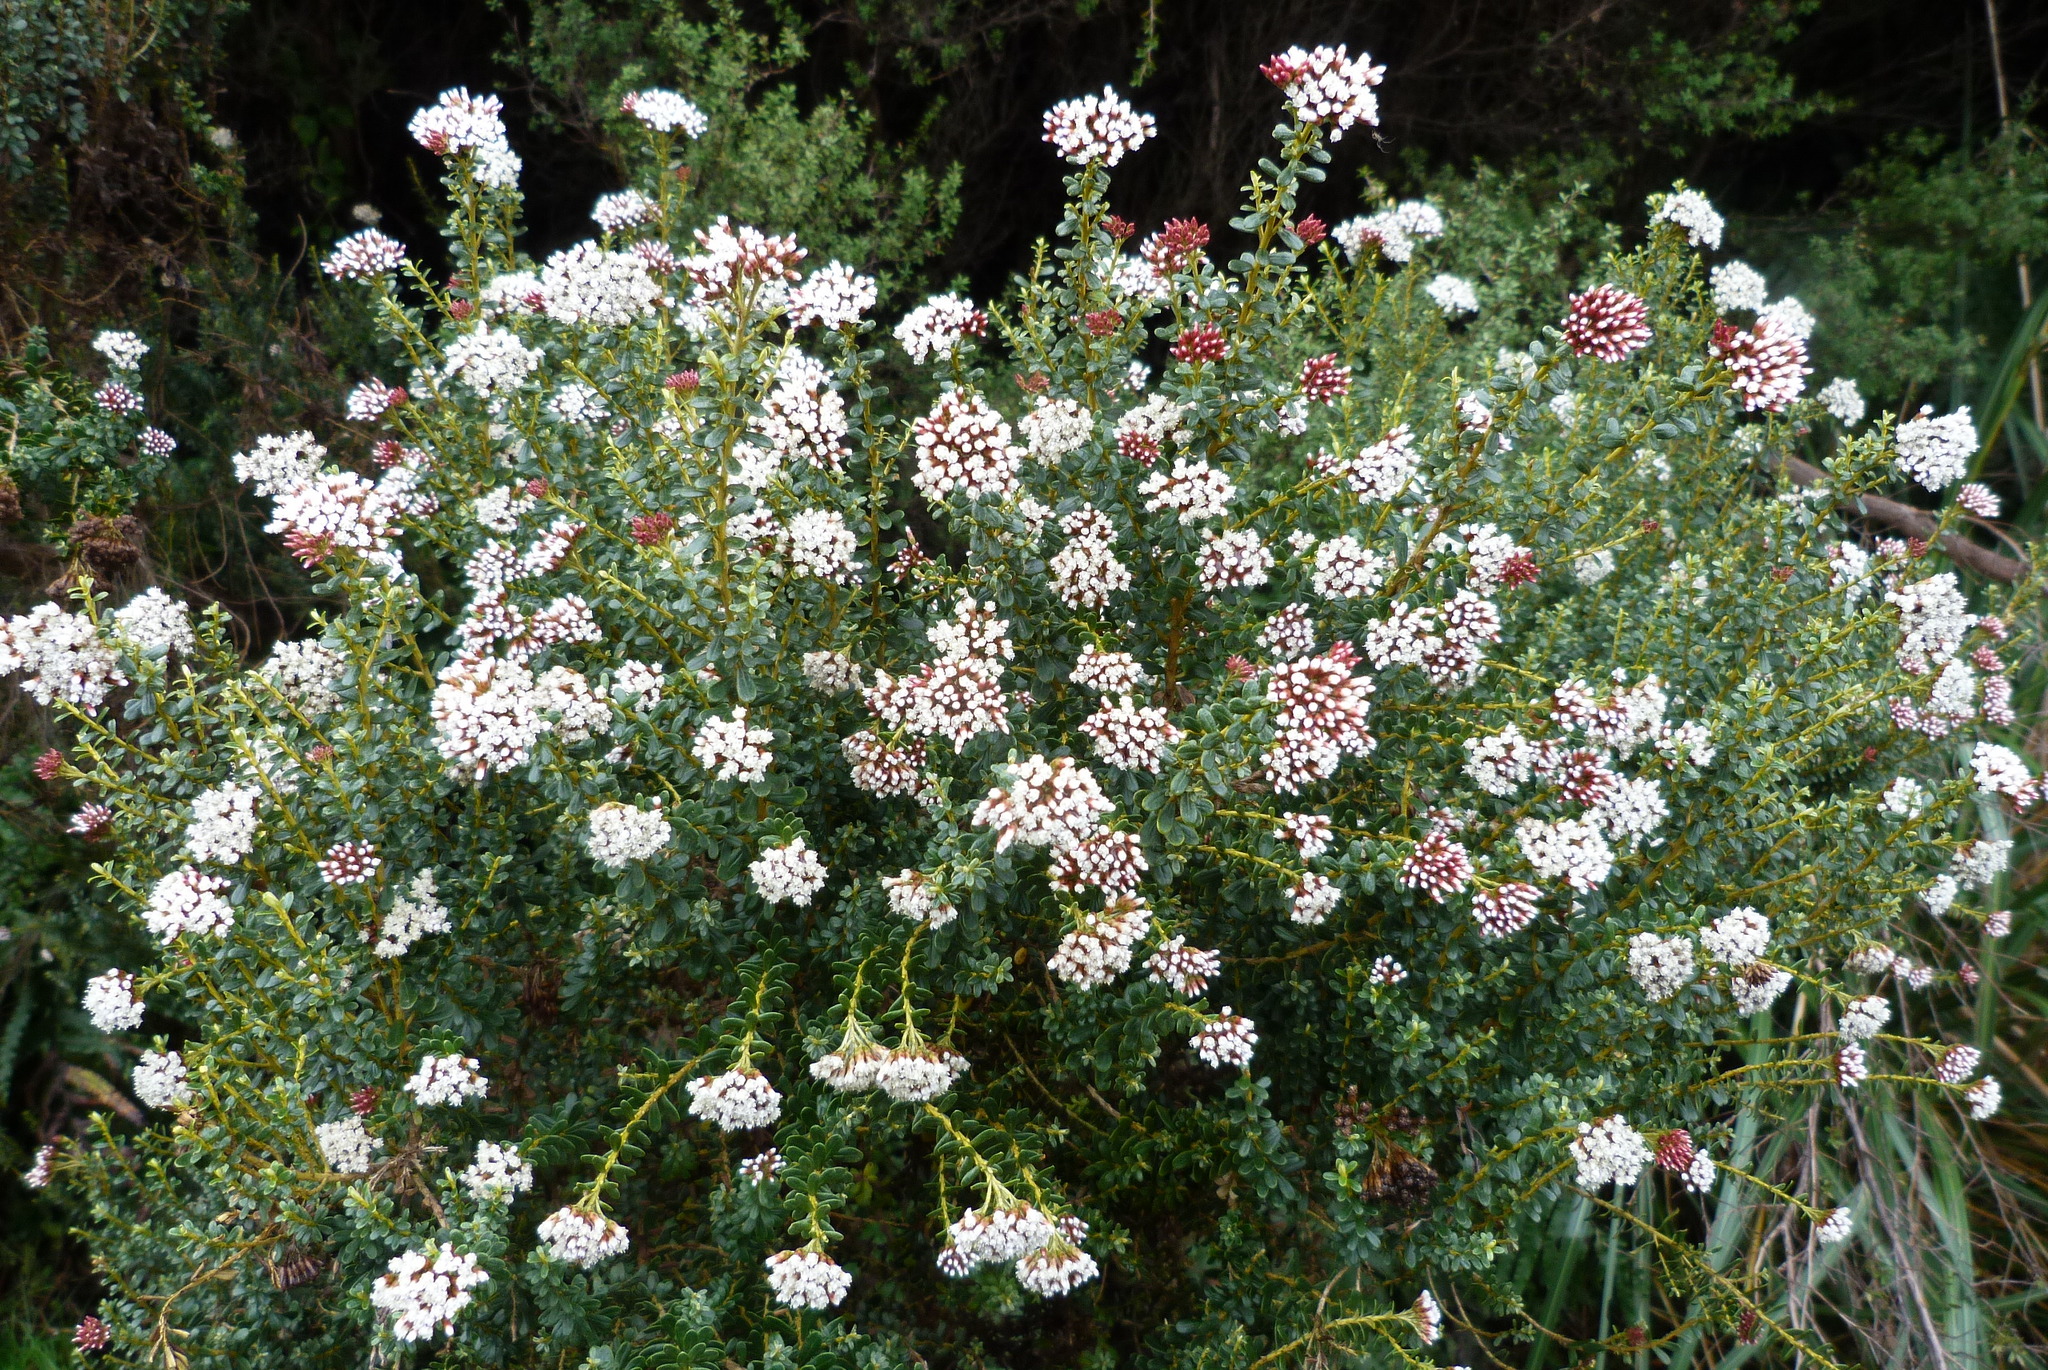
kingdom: Plantae
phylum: Tracheophyta
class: Magnoliopsida
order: Asterales
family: Asteraceae
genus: Ozothamnus
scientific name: Ozothamnus leptophyllus
